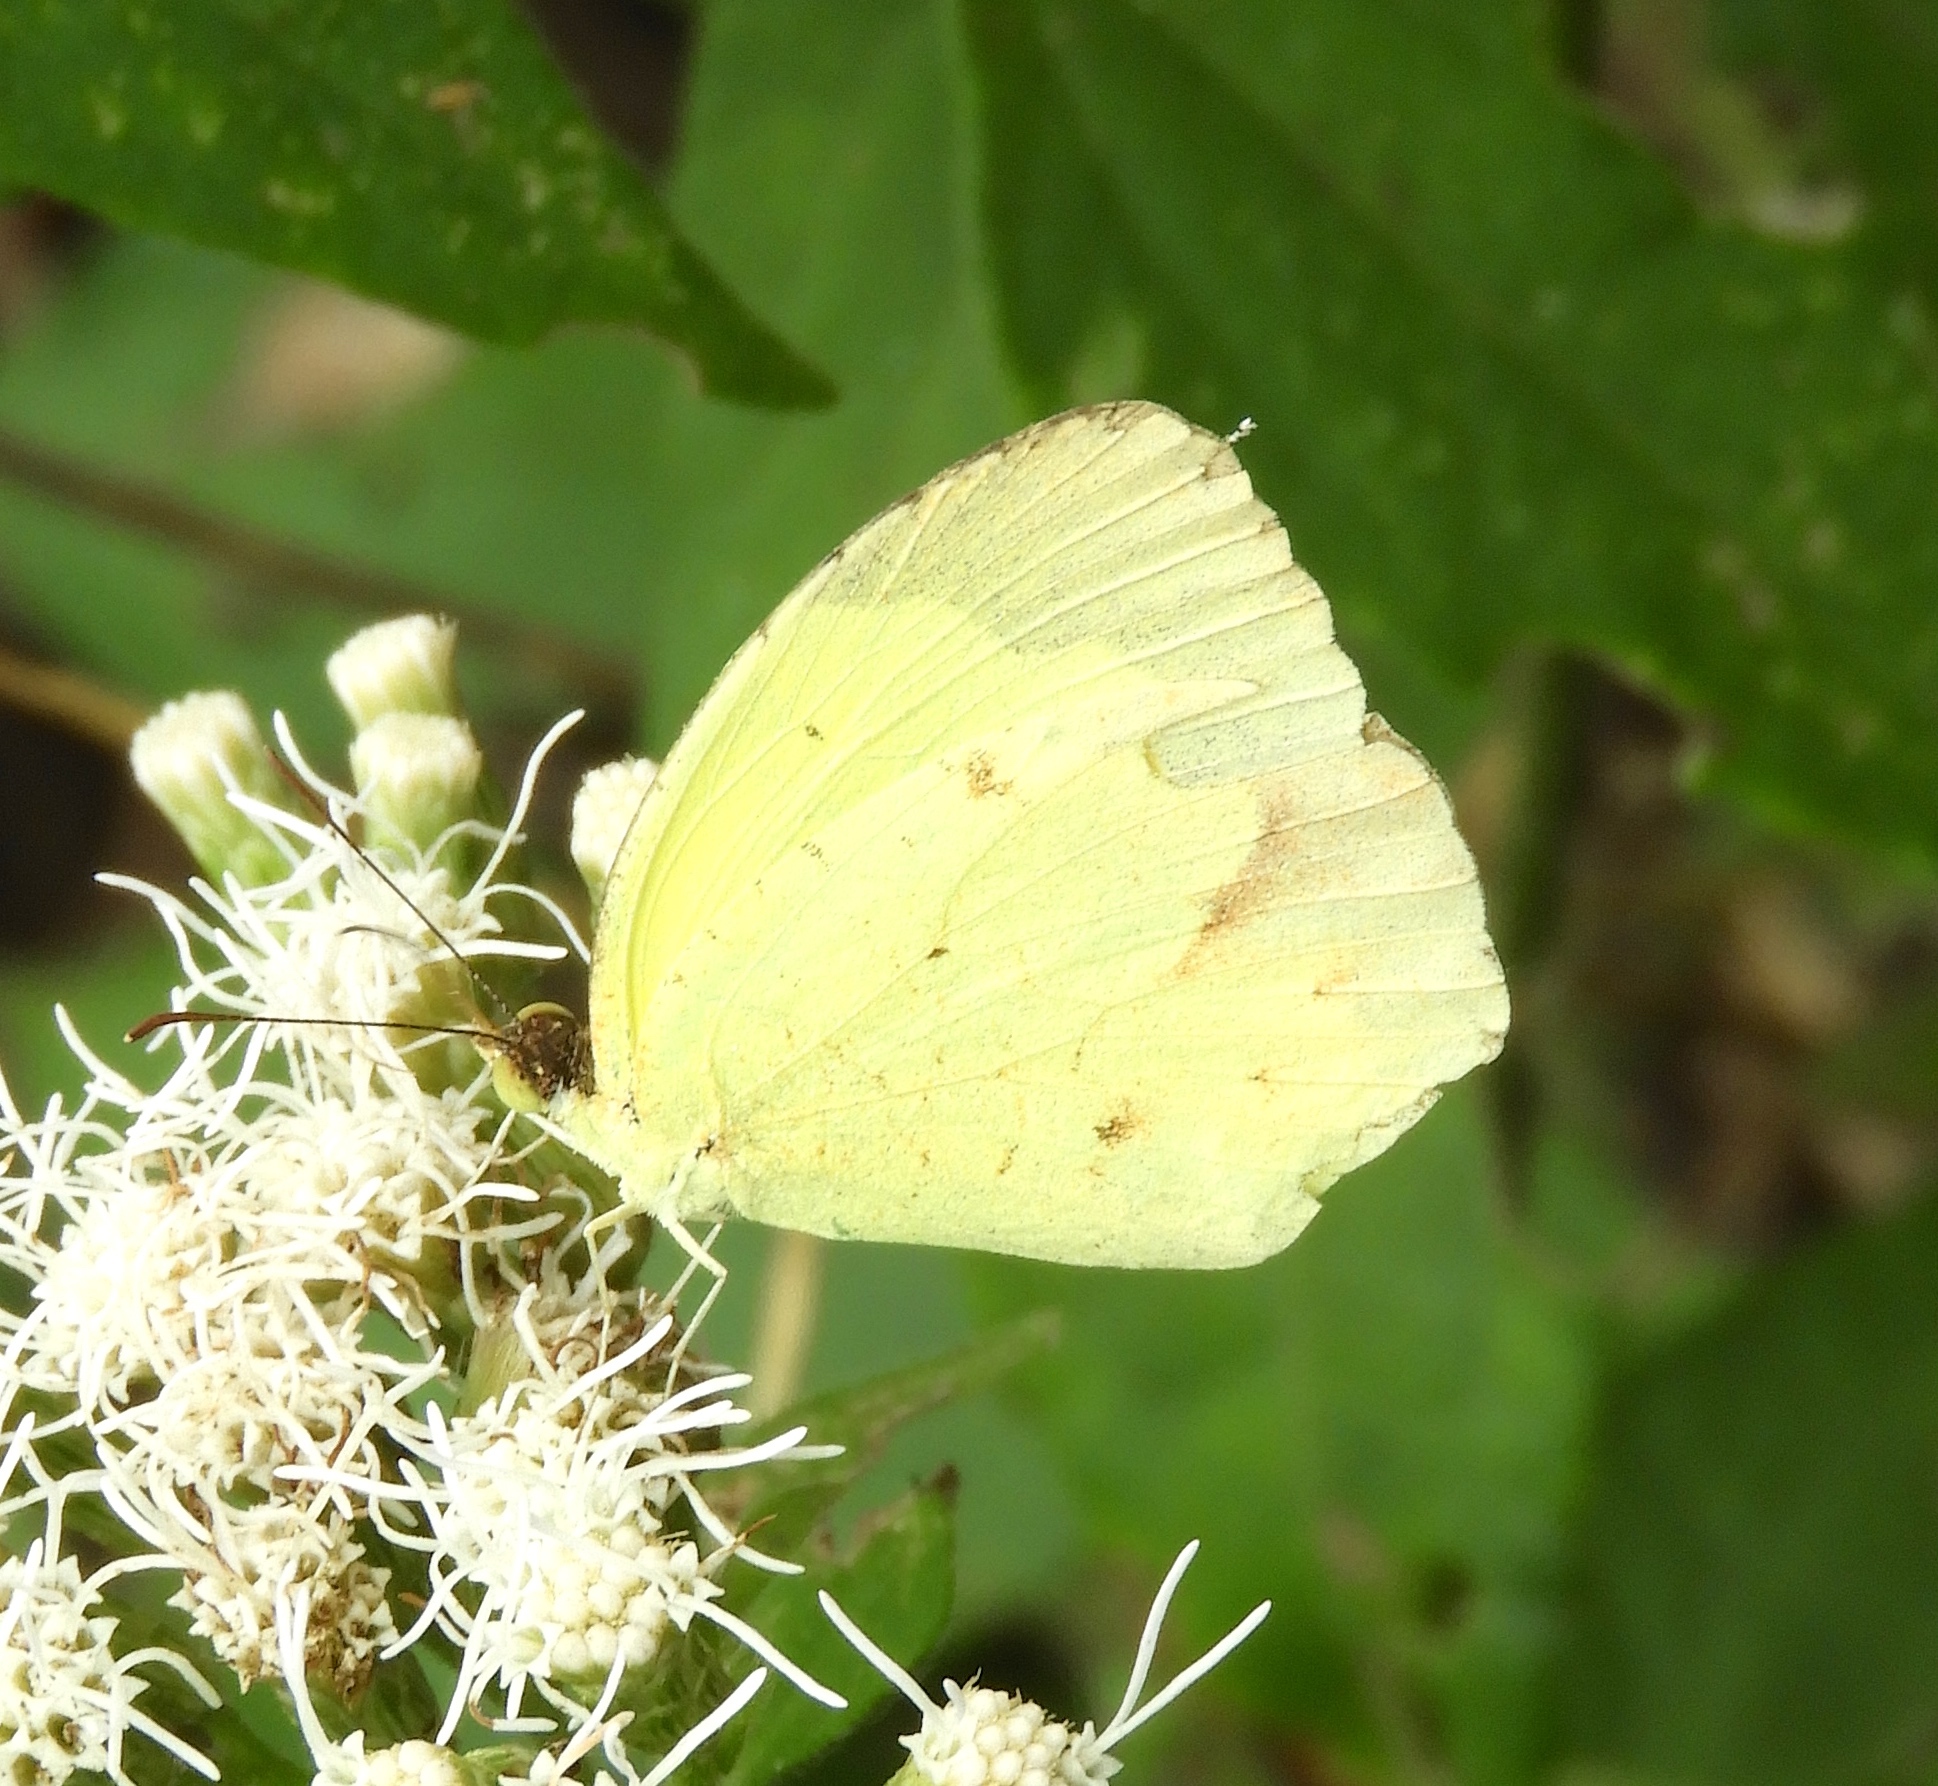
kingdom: Animalia
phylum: Arthropoda
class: Insecta
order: Lepidoptera
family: Pieridae
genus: Abaeis
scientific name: Abaeis boisduvaliana
